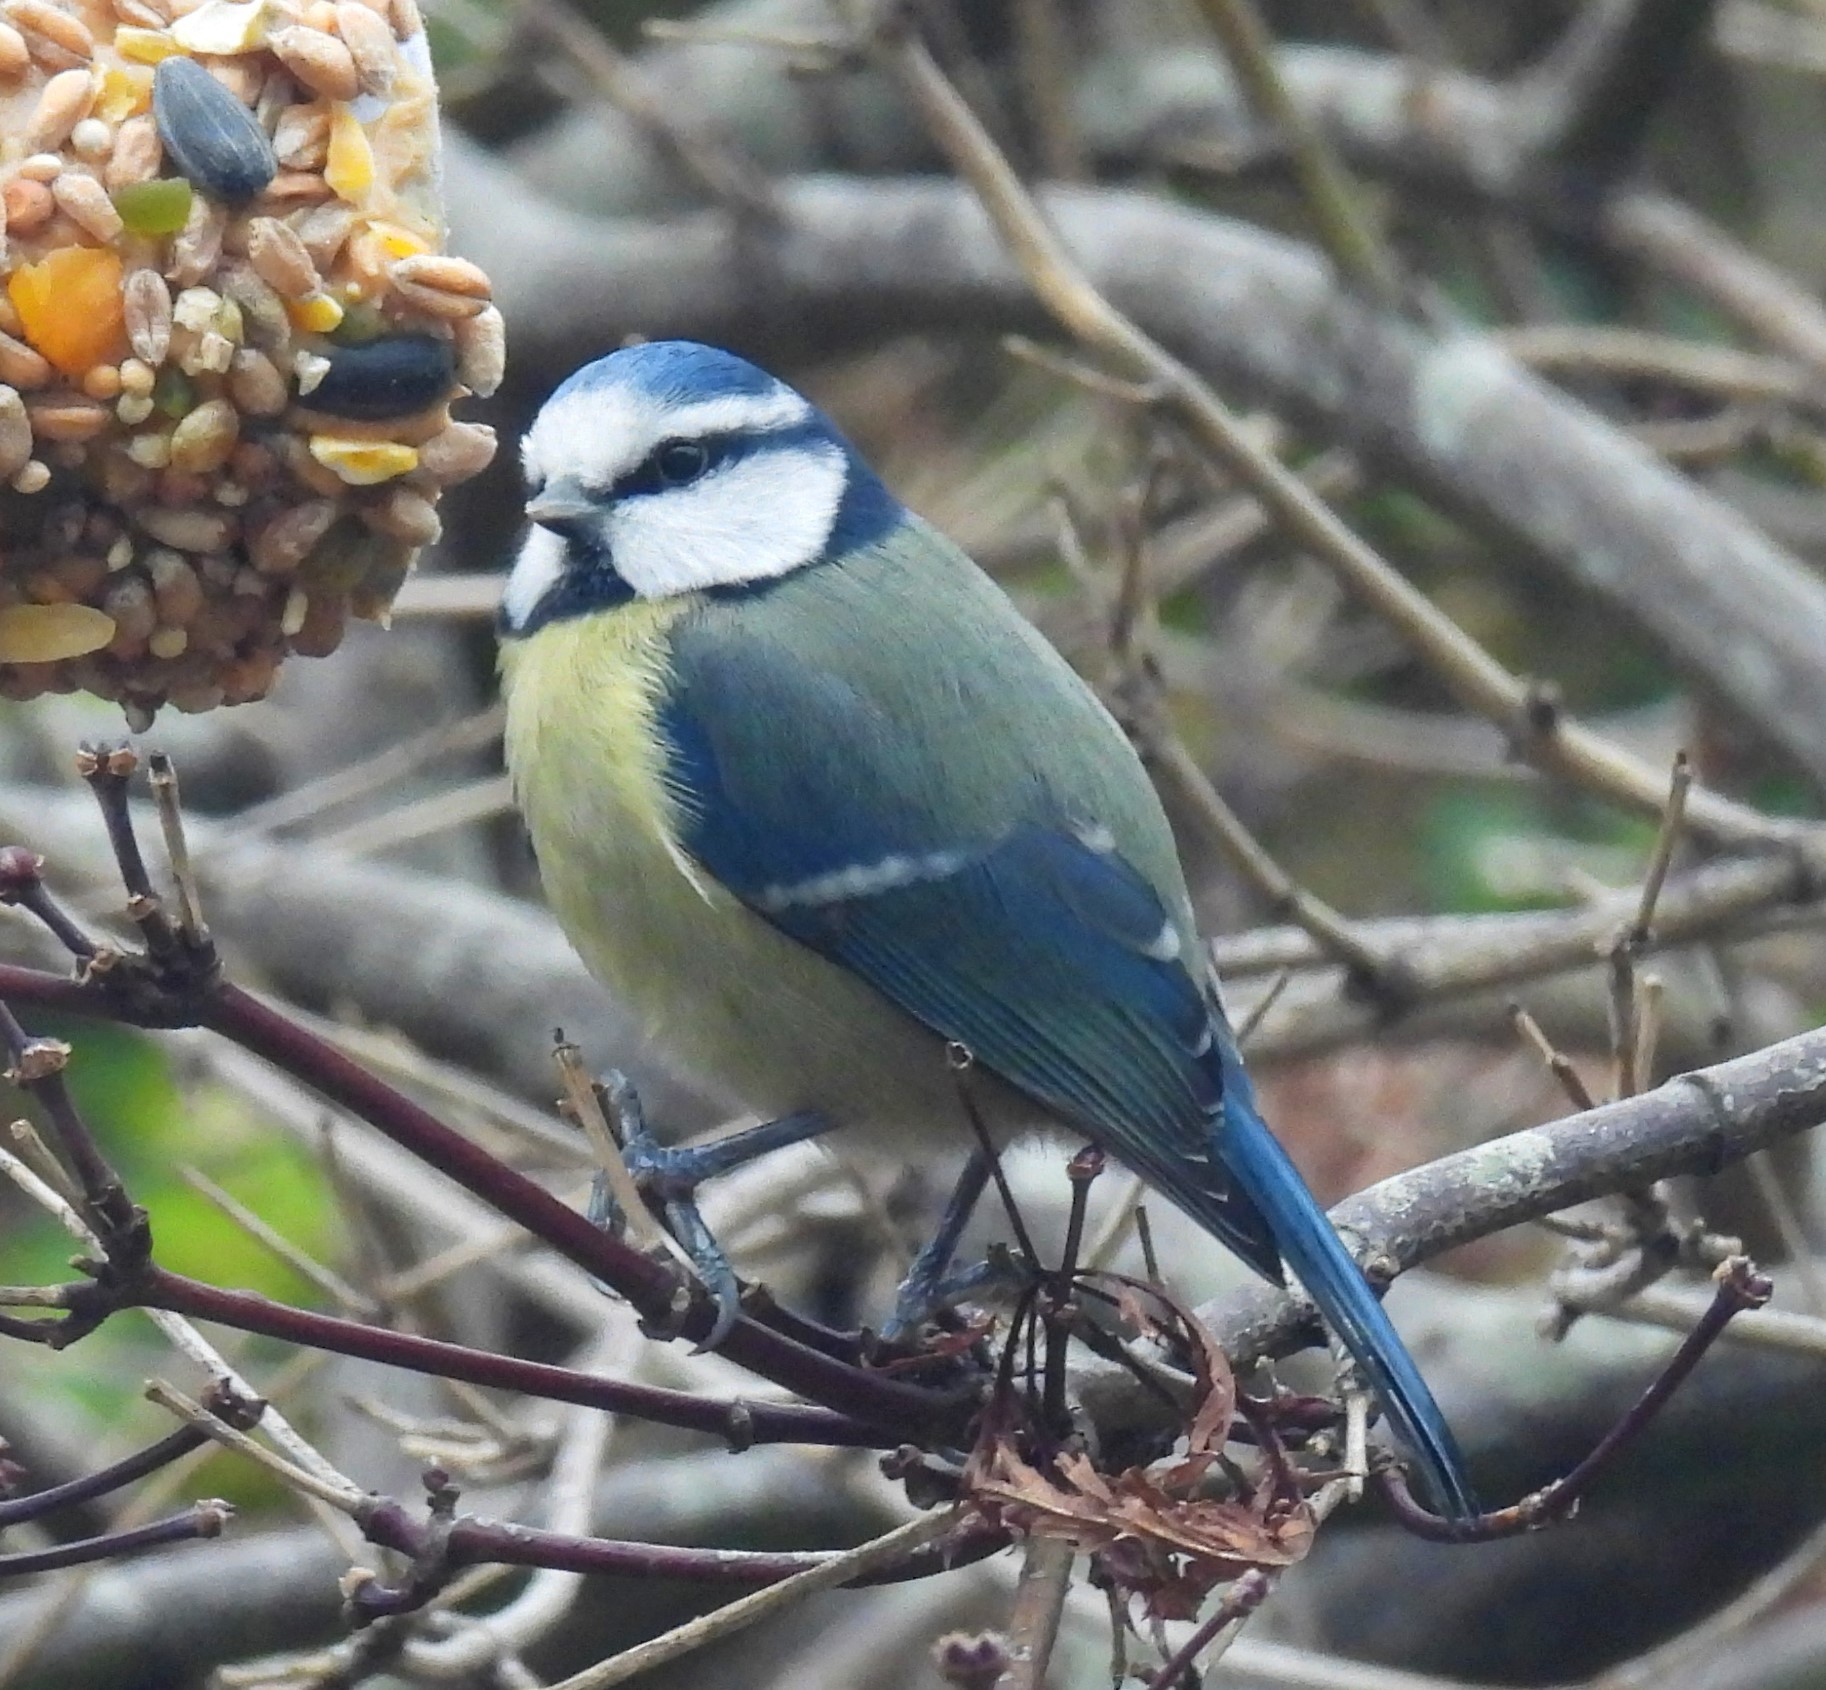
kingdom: Animalia
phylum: Chordata
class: Aves
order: Passeriformes
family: Paridae
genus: Cyanistes
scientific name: Cyanistes caeruleus
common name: Eurasian blue tit
